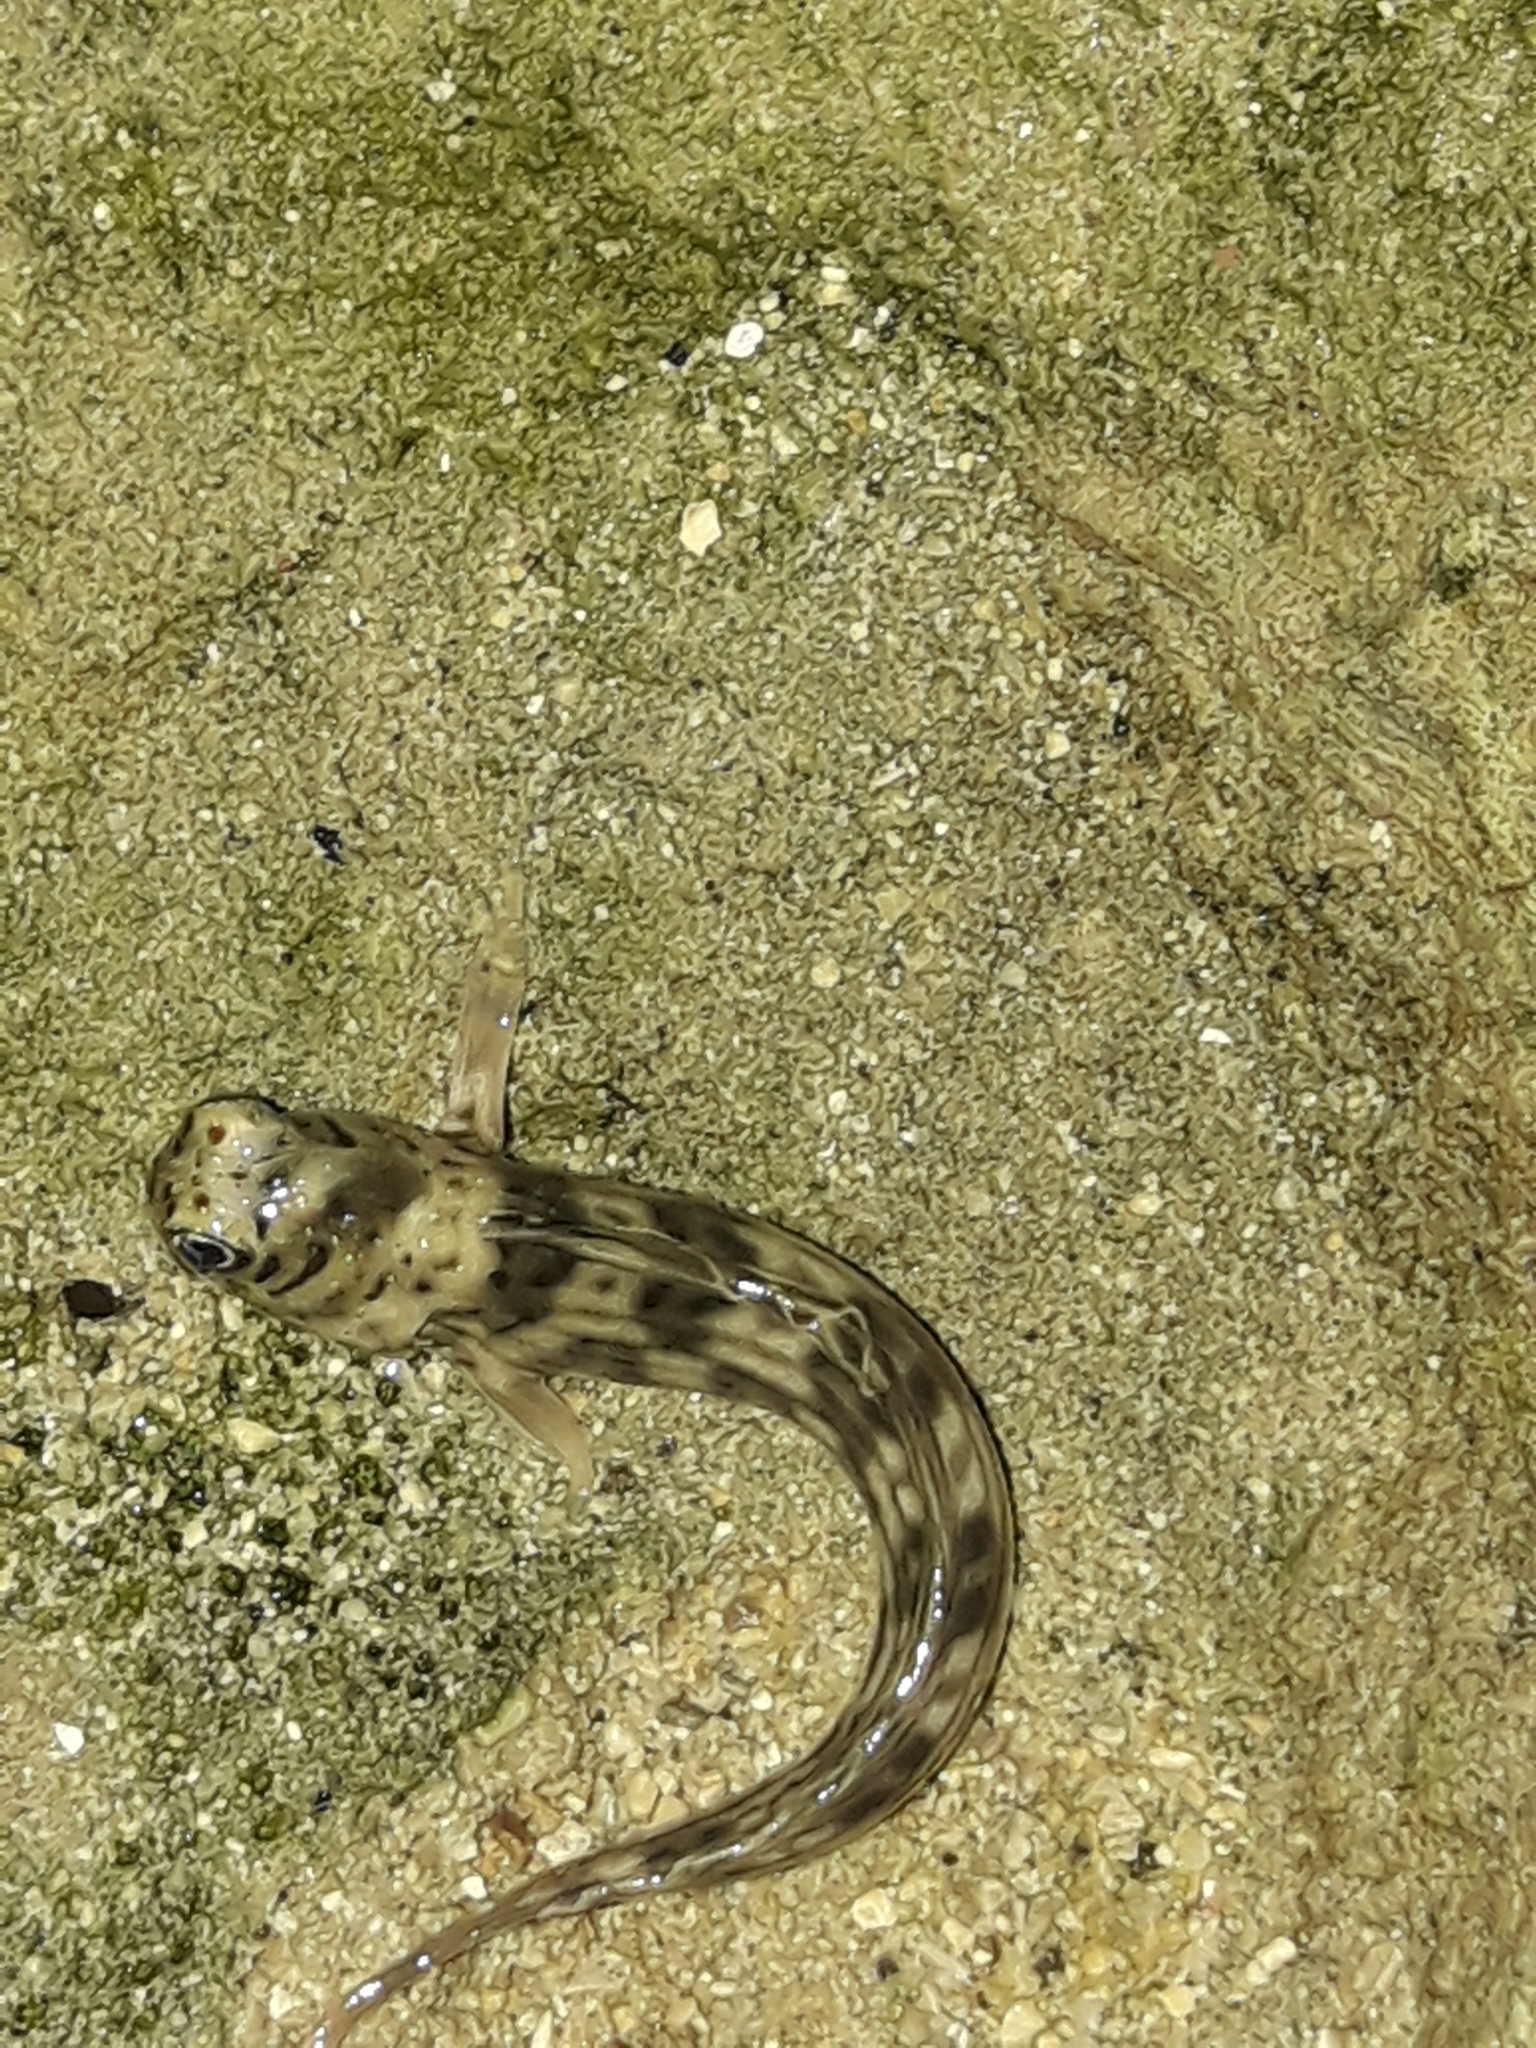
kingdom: Animalia
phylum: Chordata
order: Perciformes
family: Blenniidae
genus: Istiblennius
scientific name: Istiblennius lineatus
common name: Black-lined blenny
